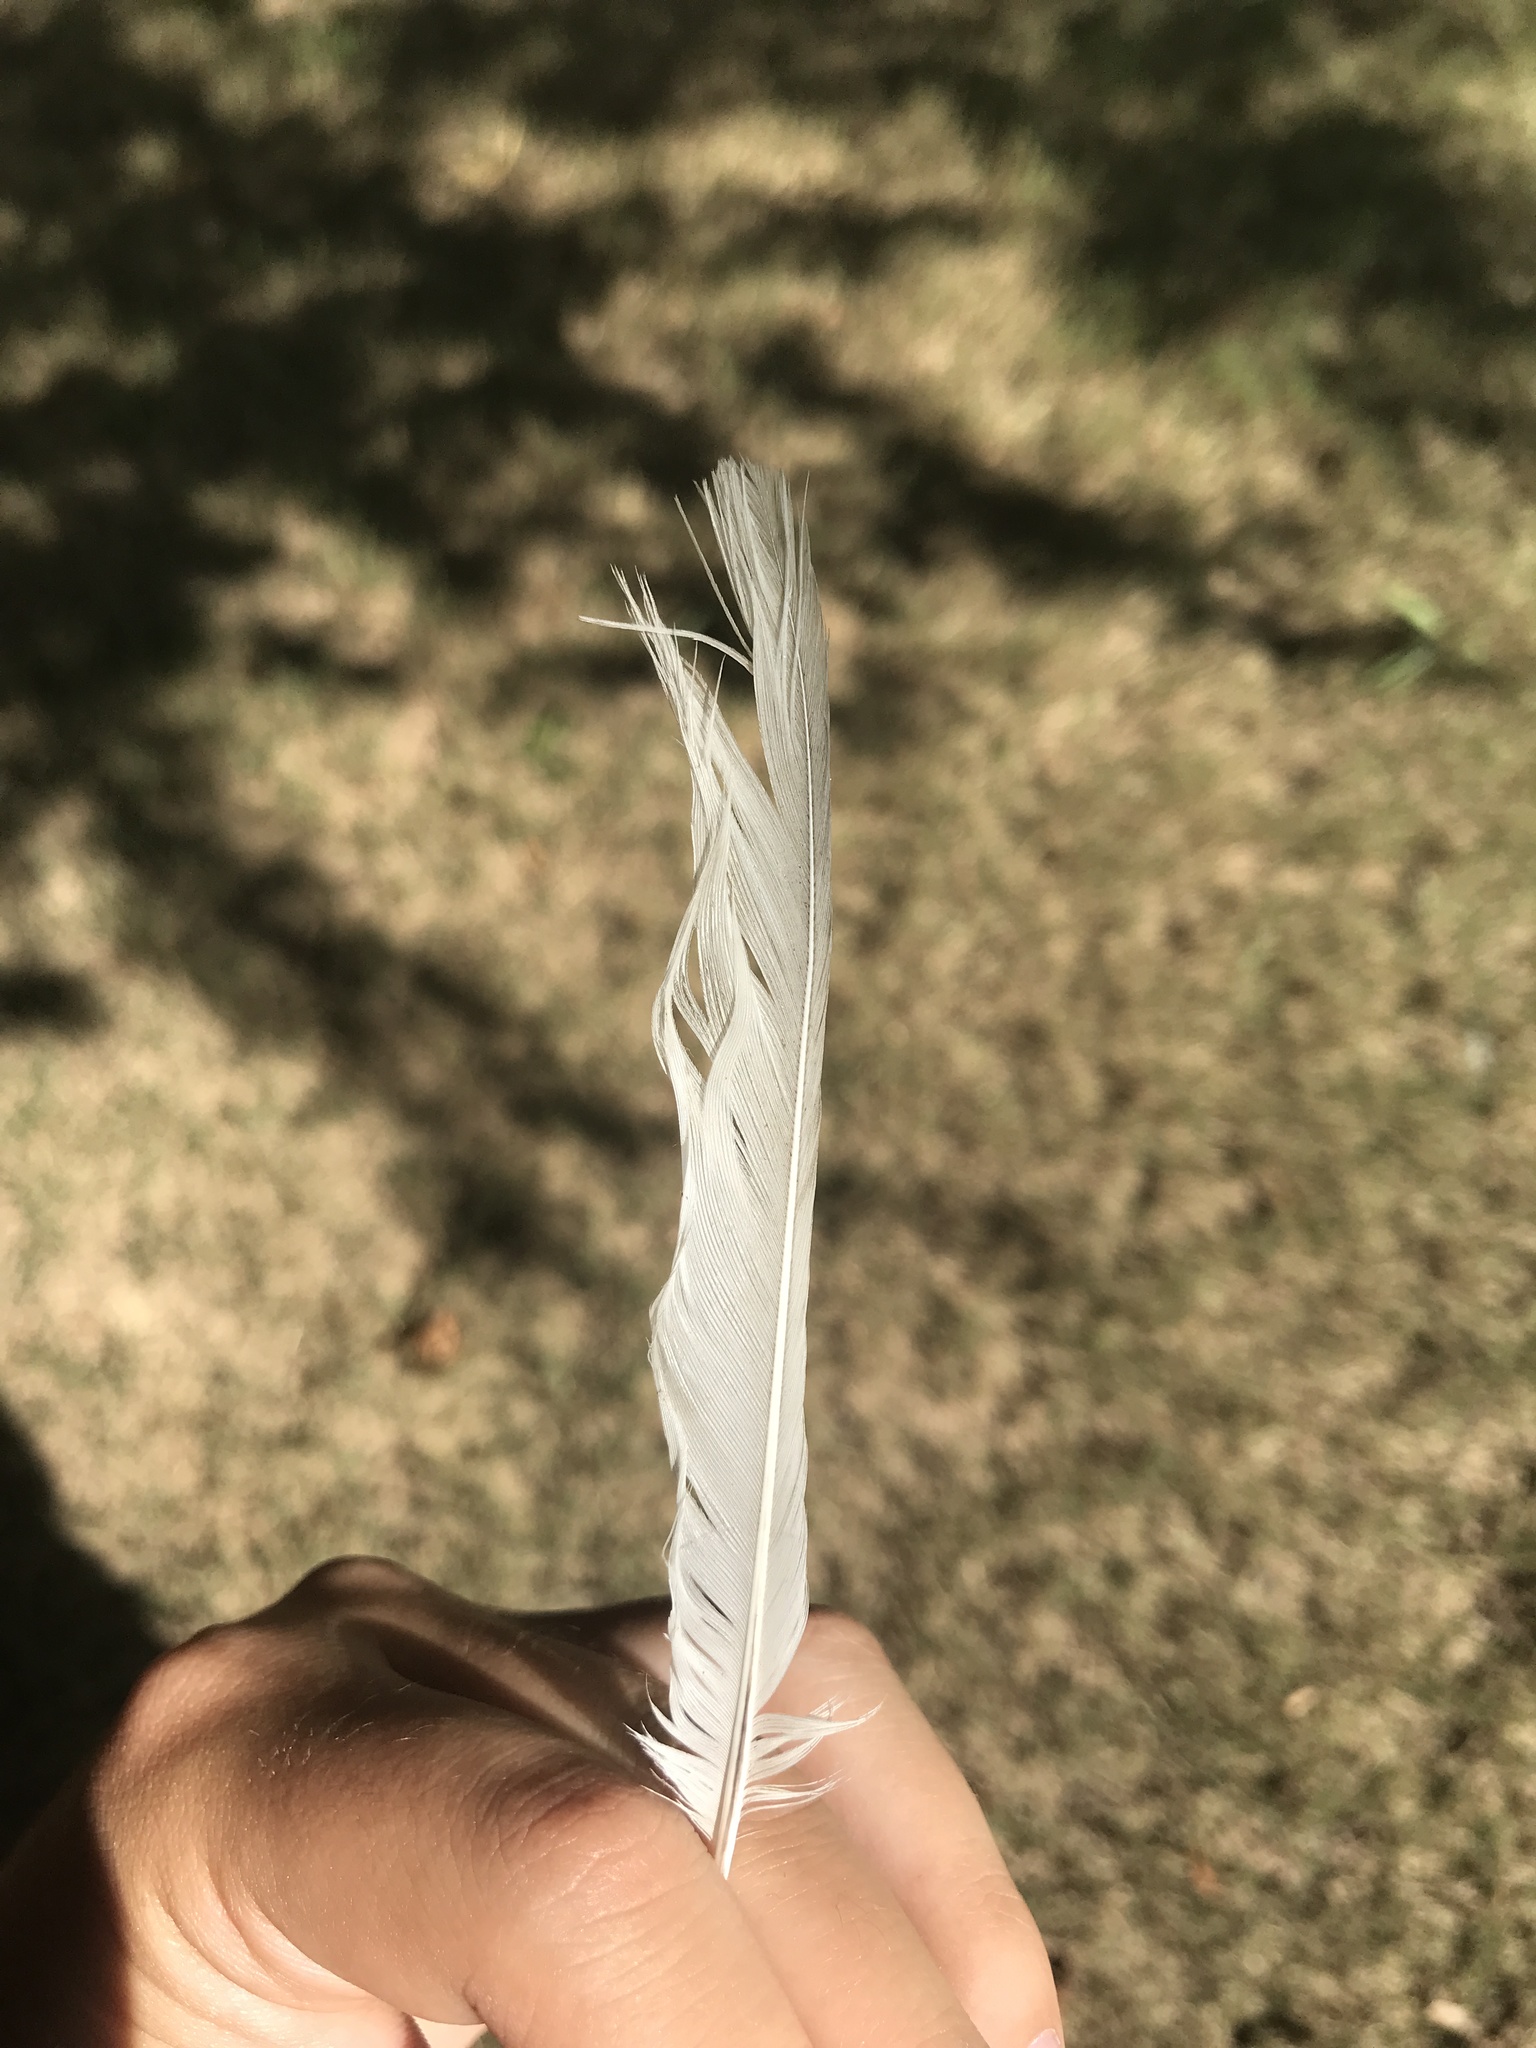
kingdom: Animalia
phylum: Chordata
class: Aves
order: Passeriformes
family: Mimidae
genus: Mimus
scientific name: Mimus polyglottos
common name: Northern mockingbird
